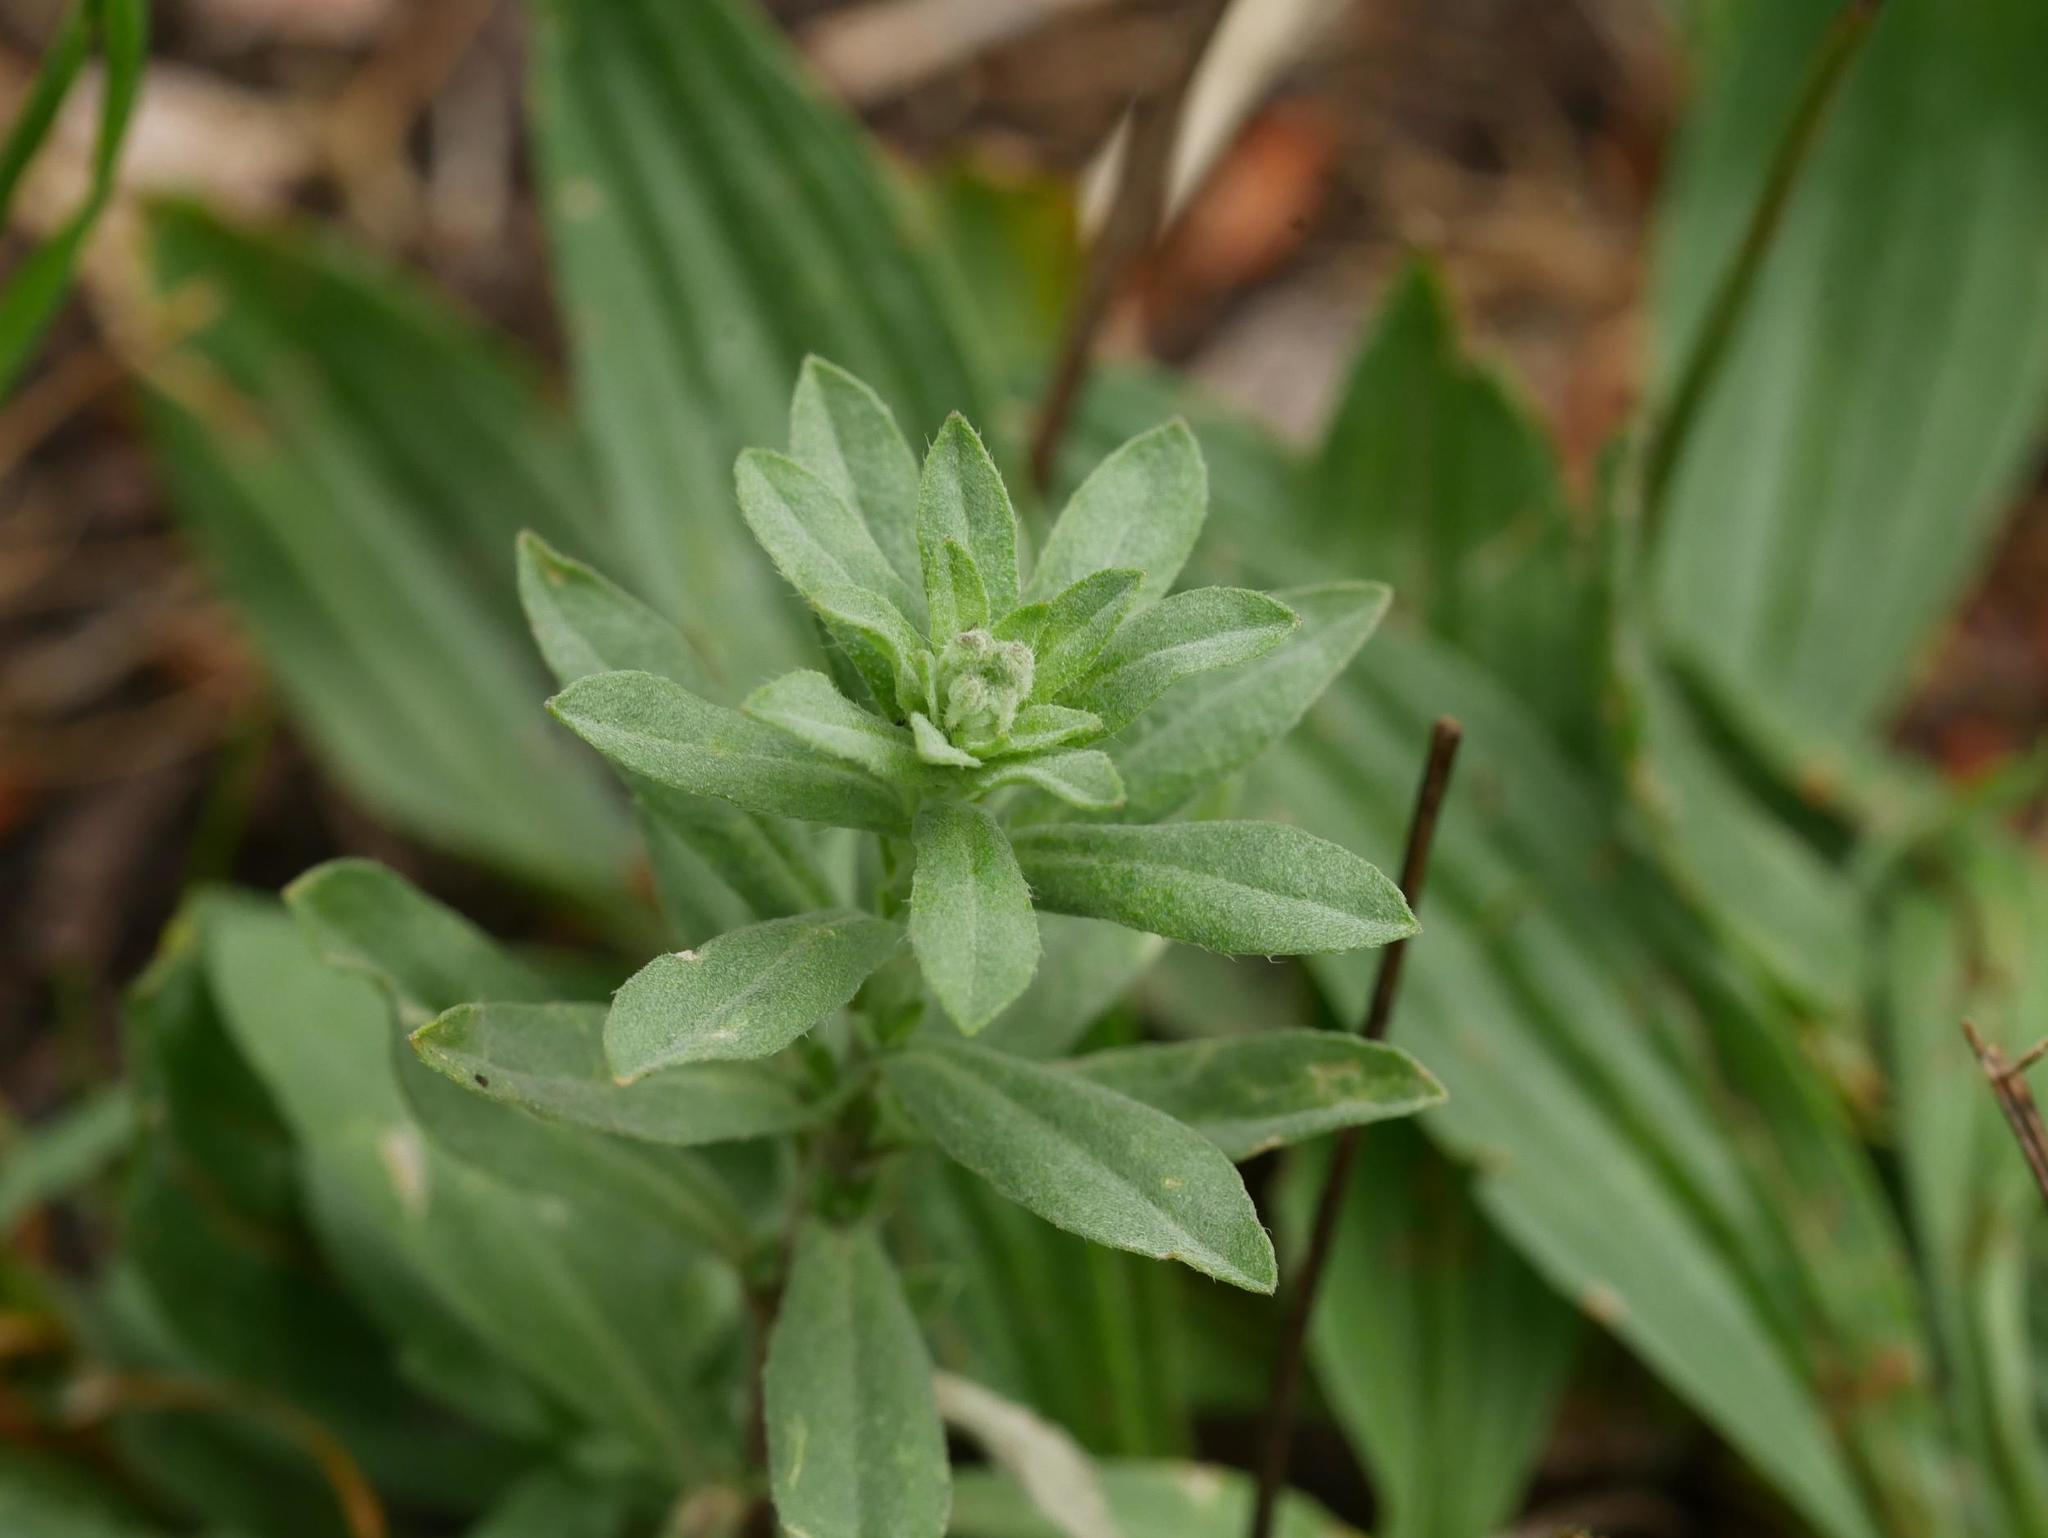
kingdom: Plantae
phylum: Tracheophyta
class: Magnoliopsida
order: Brassicales
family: Brassicaceae
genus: Berteroa
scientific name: Berteroa incana
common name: Hoary alison
